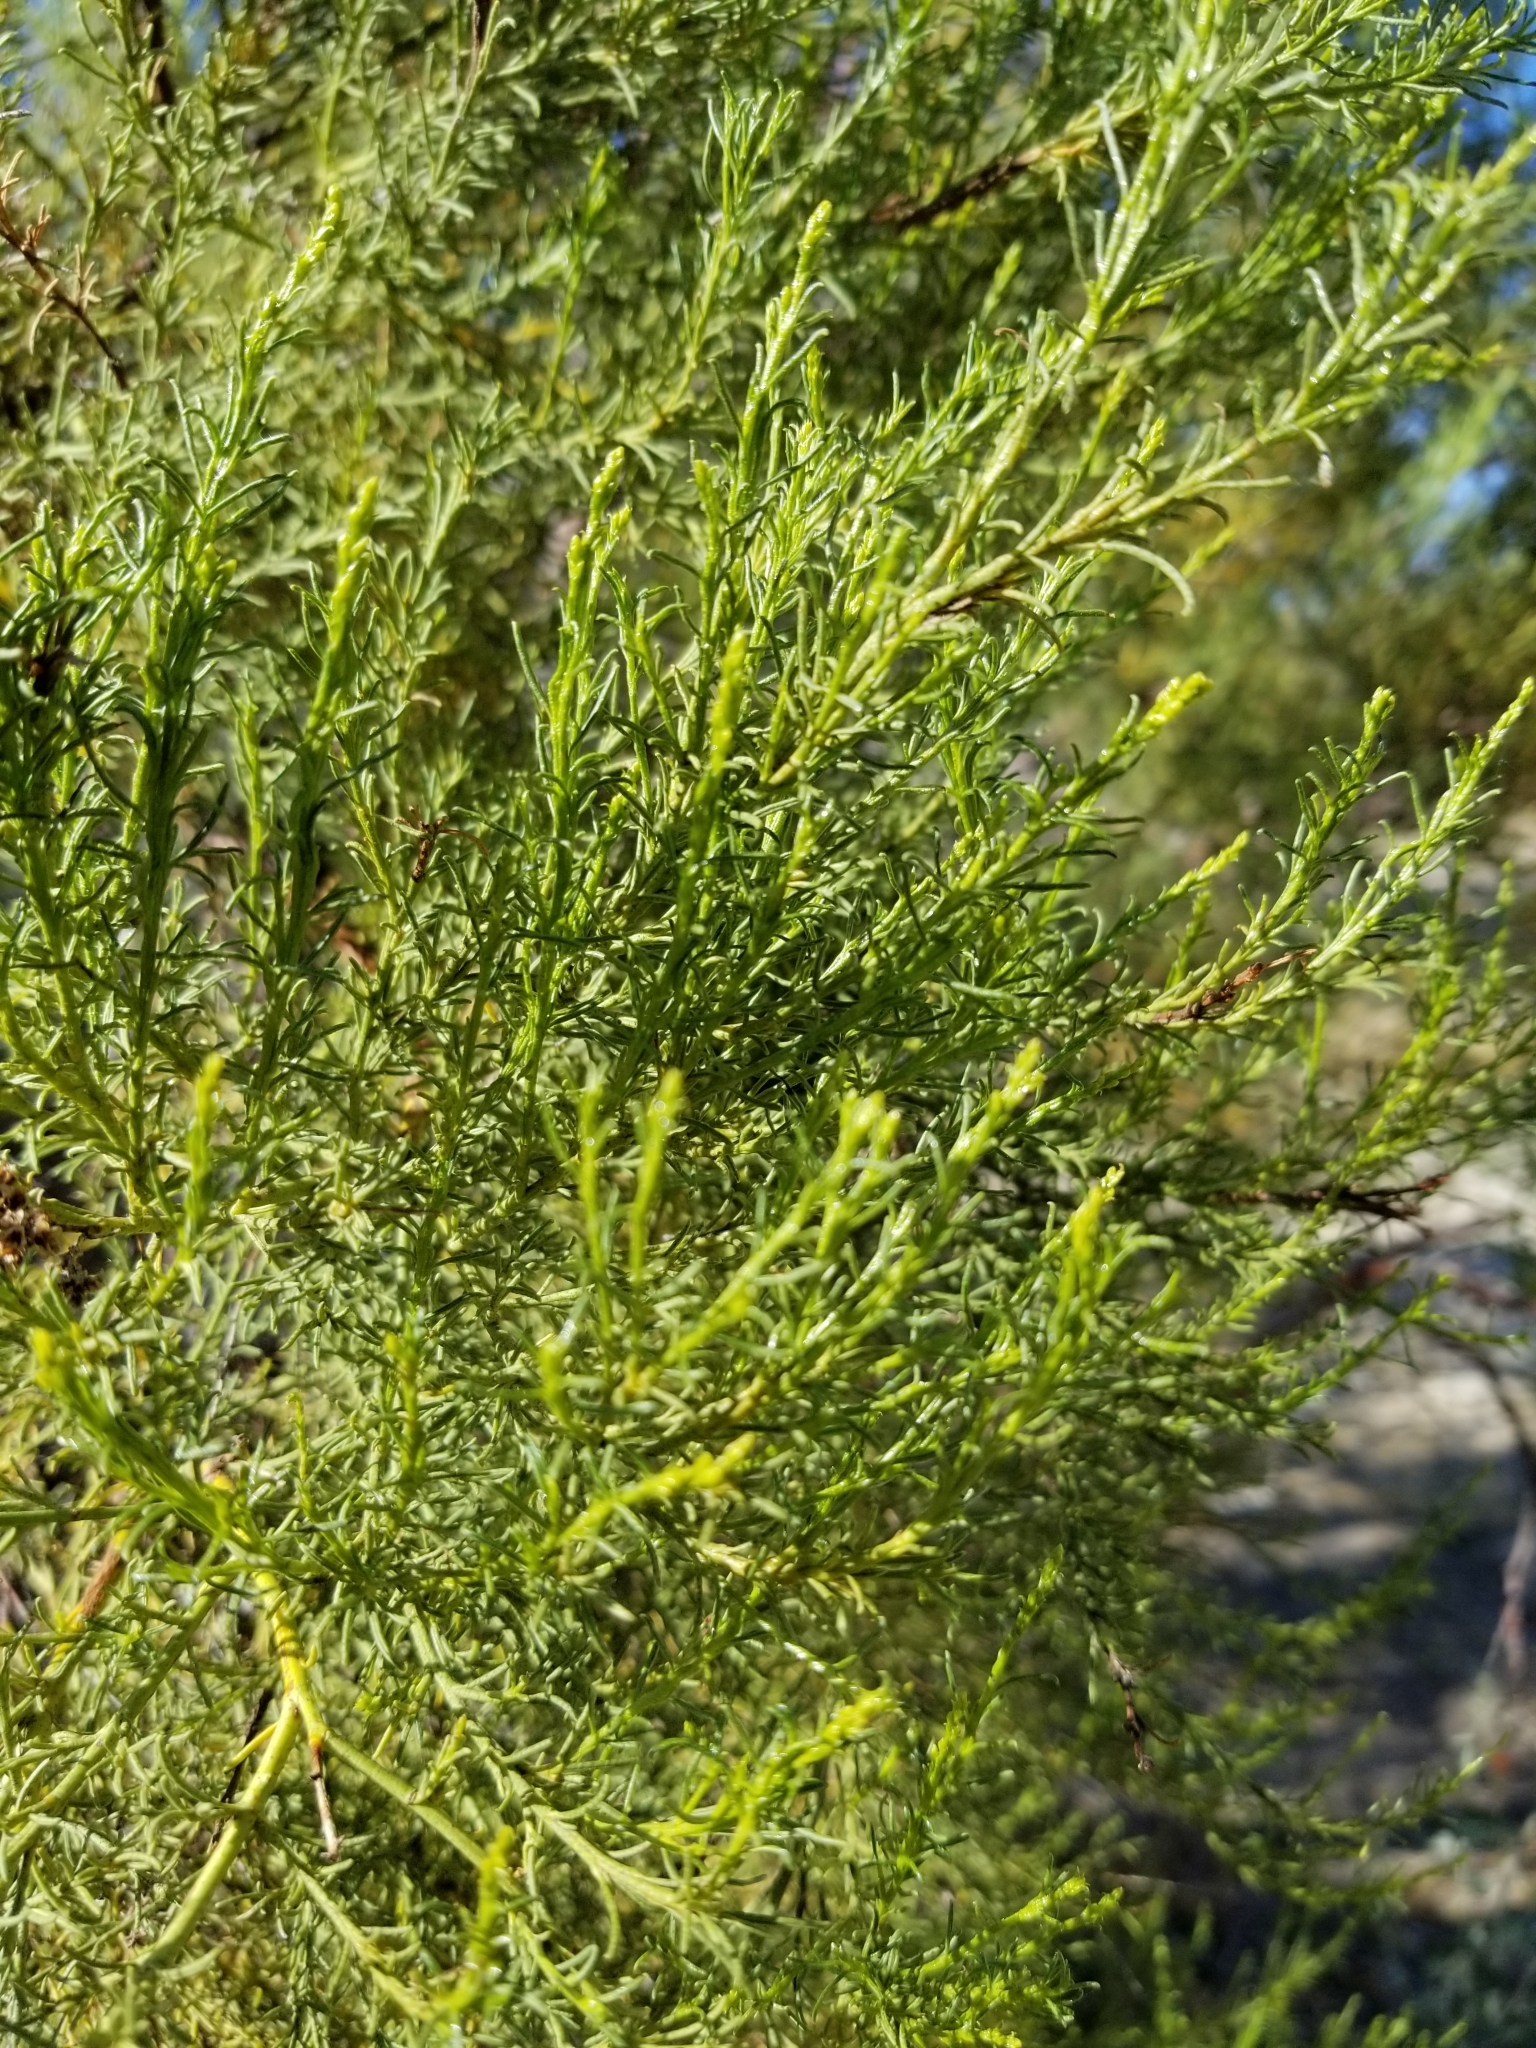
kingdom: Plantae
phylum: Tracheophyta
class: Magnoliopsida
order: Rosales
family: Rosaceae
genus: Adenostoma
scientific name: Adenostoma sparsifolium
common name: Red shank
